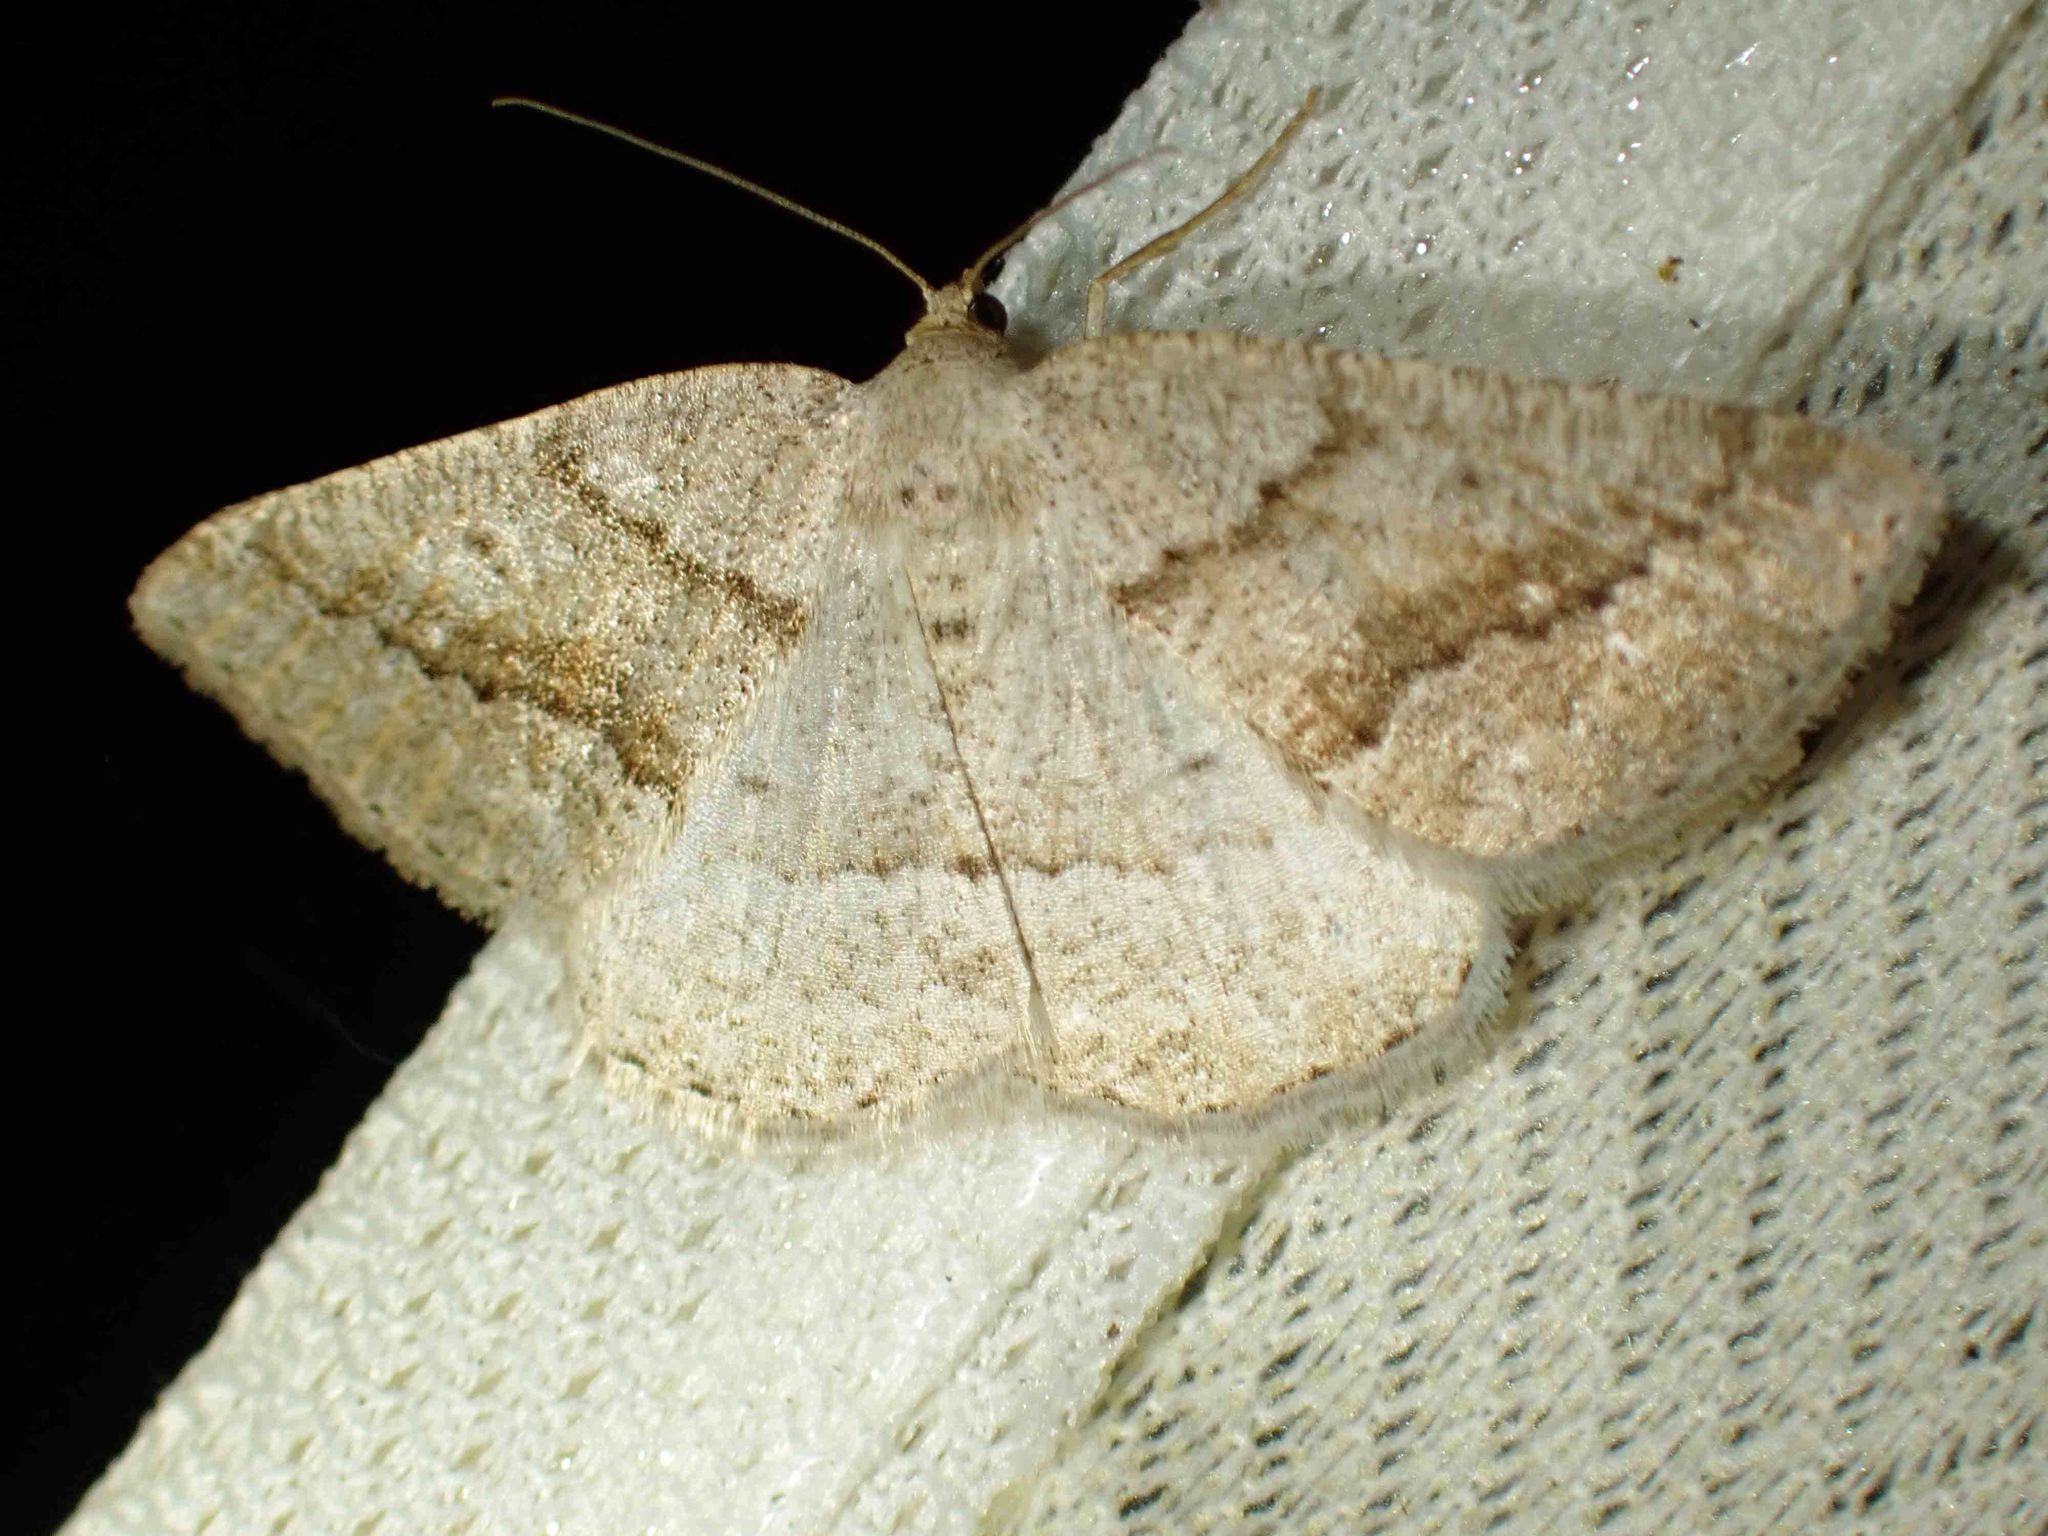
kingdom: Animalia
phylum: Arthropoda
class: Insecta
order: Lepidoptera
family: Geometridae
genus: Tacparia
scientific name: Tacparia detersata
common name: Pale alder moth
